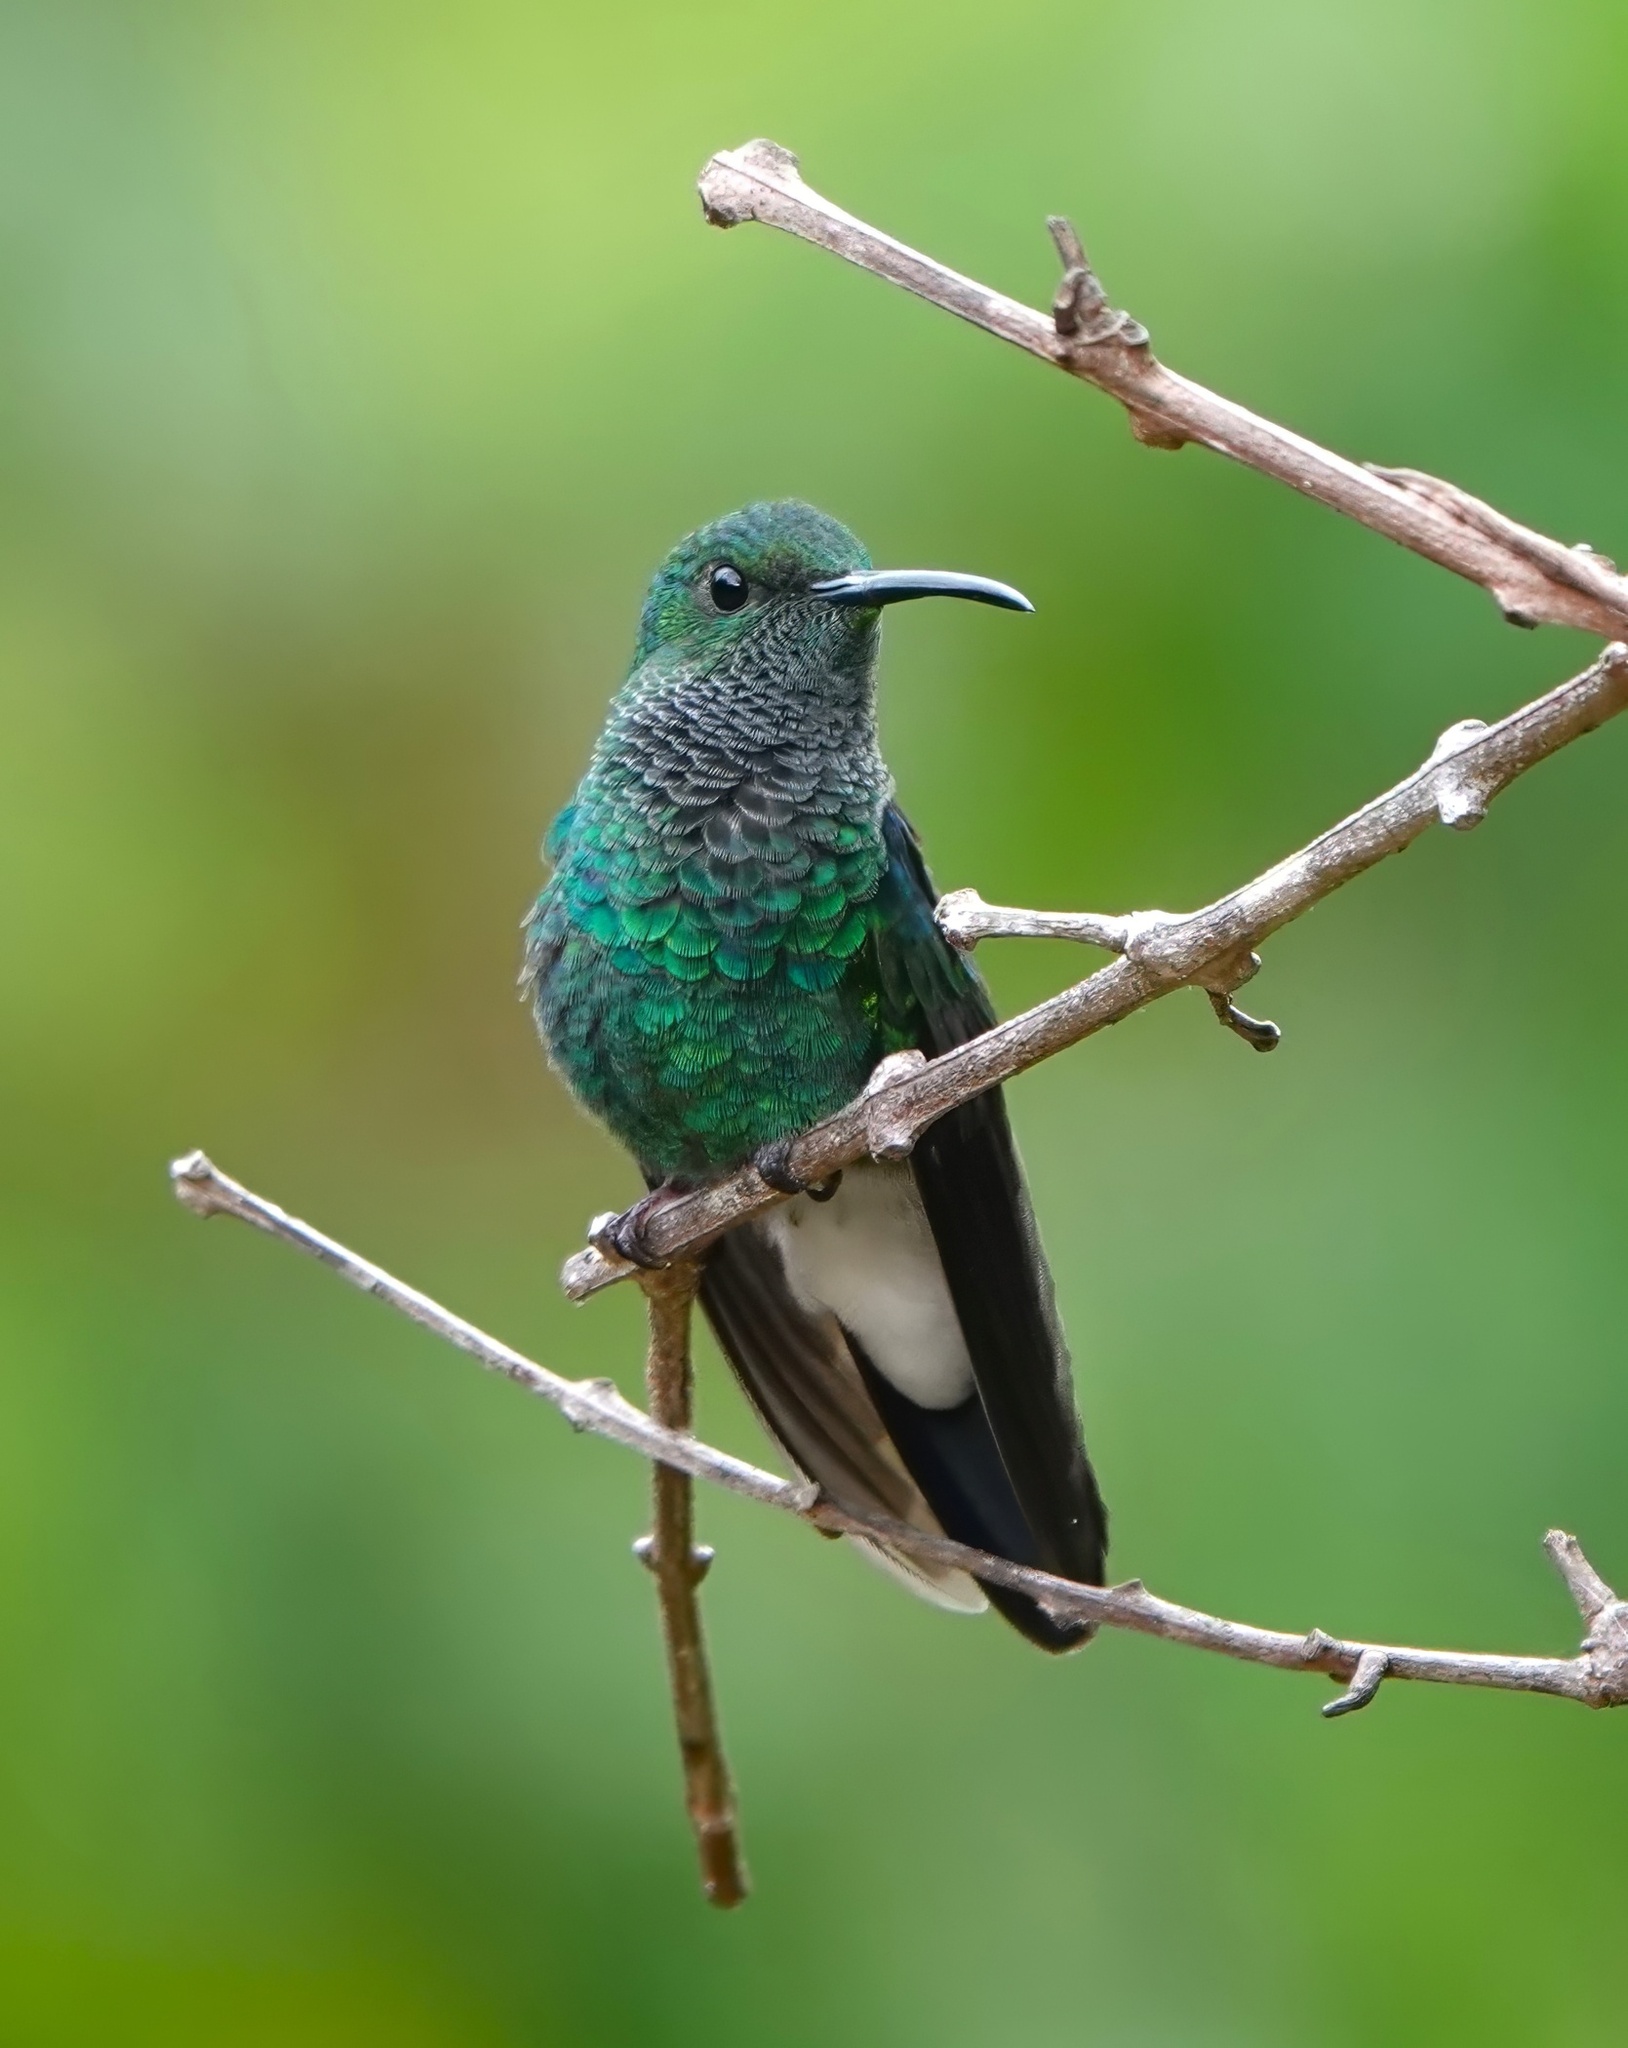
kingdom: Animalia
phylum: Chordata
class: Aves
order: Apodiformes
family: Trochilidae
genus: Chalybura
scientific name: Chalybura buffonii
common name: White-vented plumeleteer
